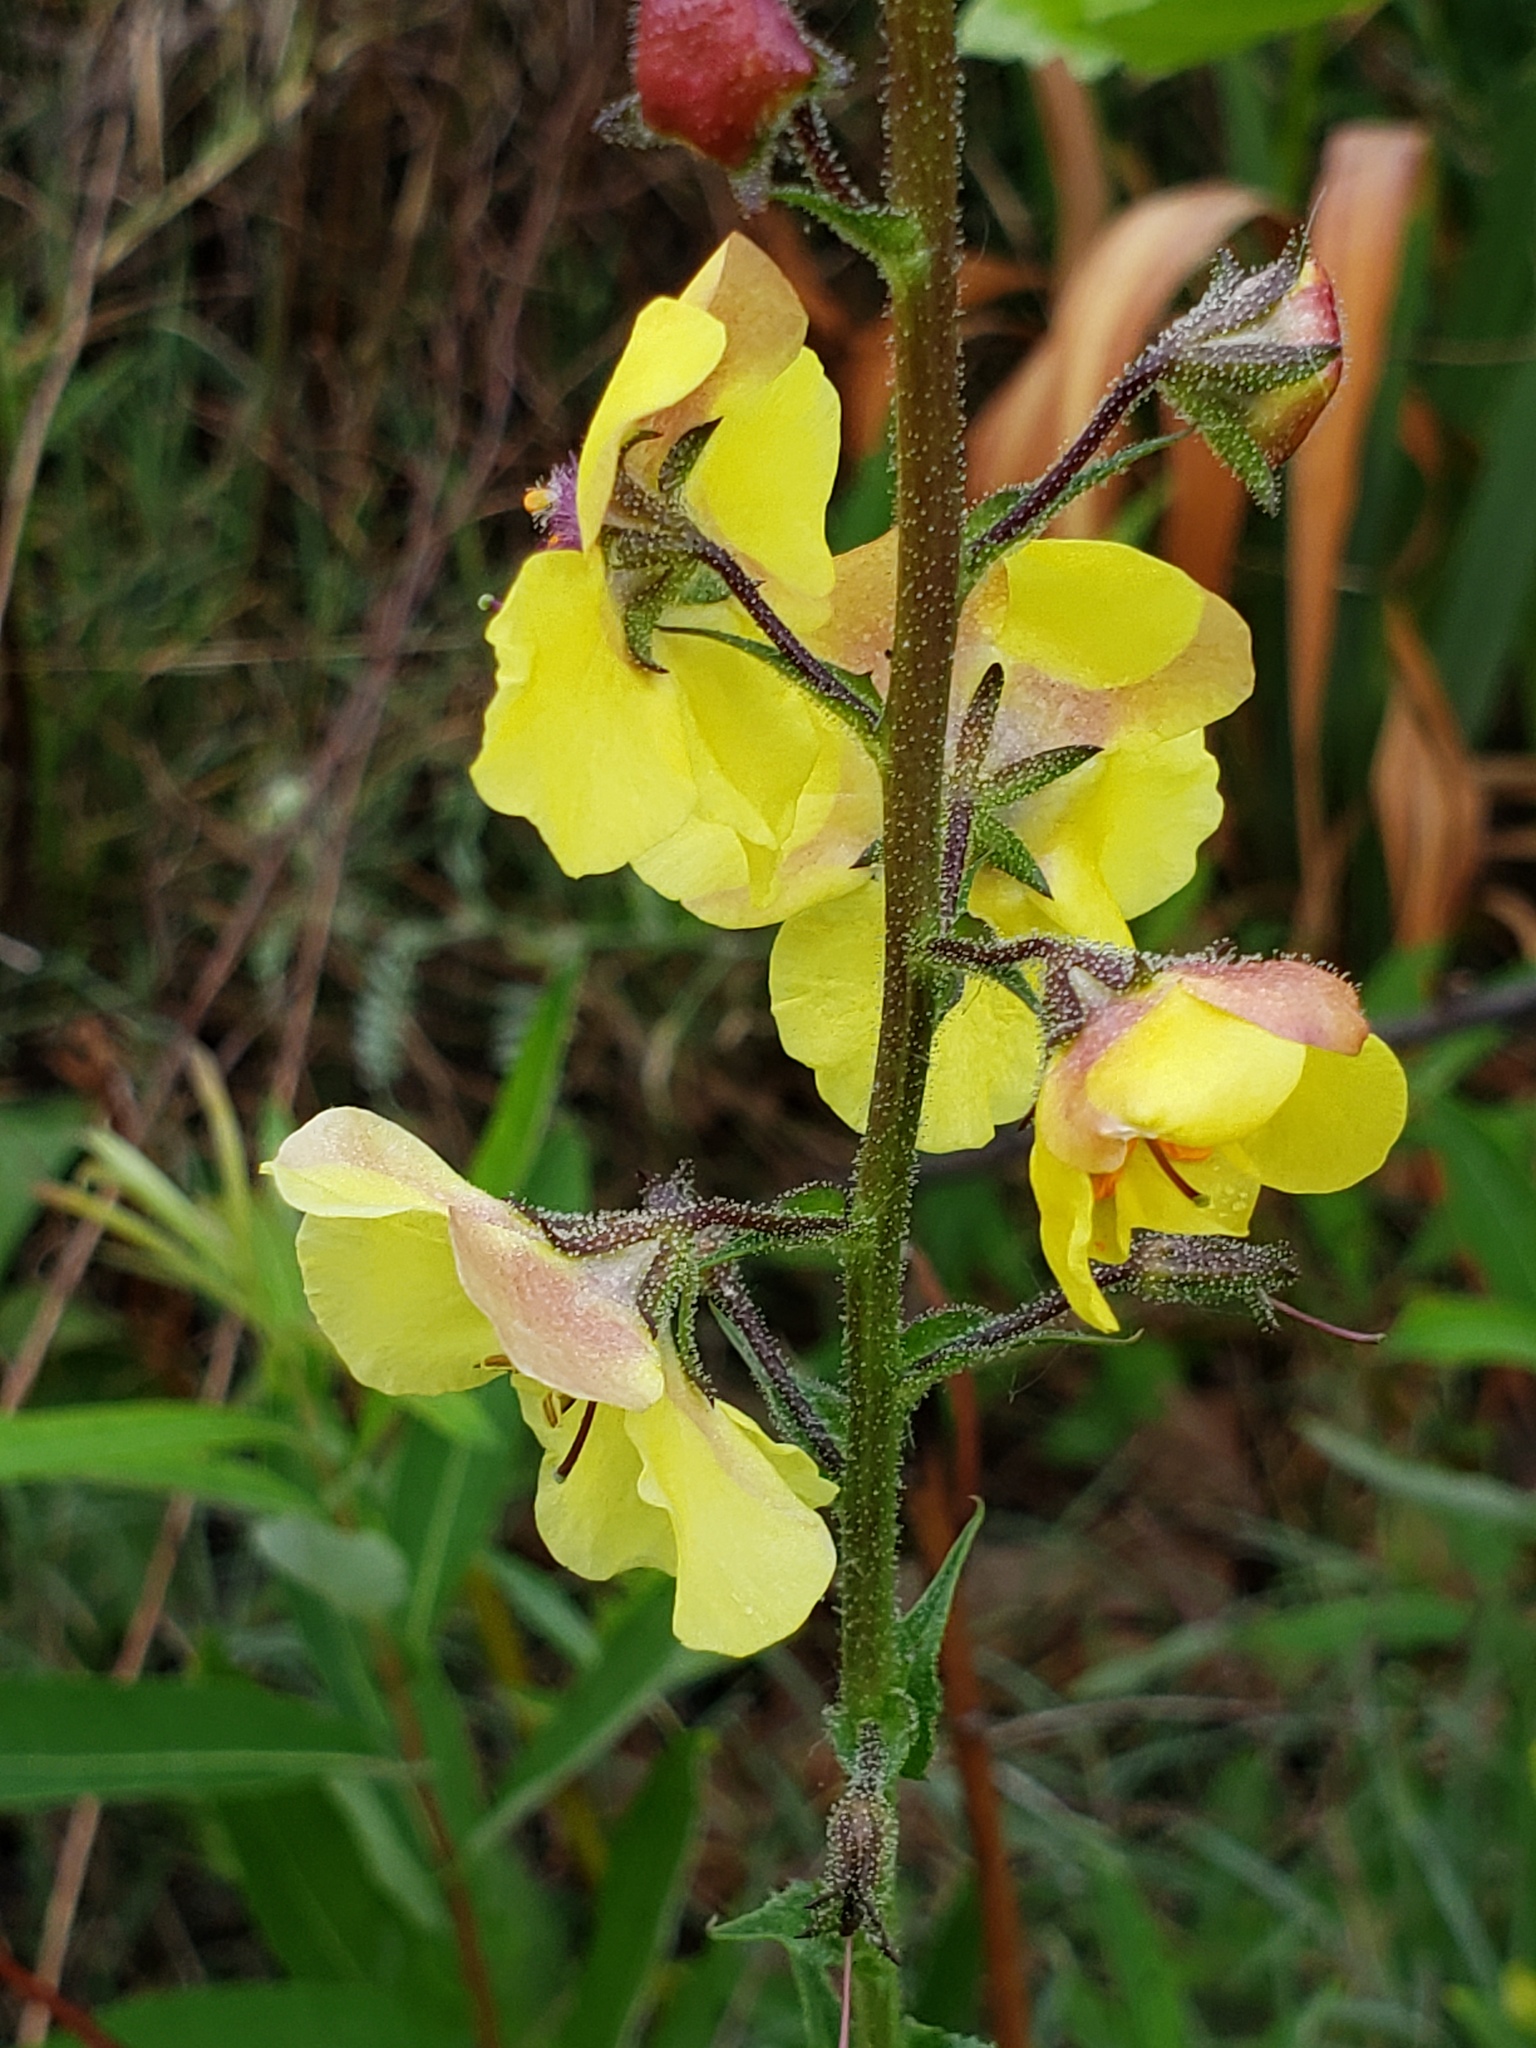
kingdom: Plantae
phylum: Tracheophyta
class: Magnoliopsida
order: Lamiales
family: Scrophulariaceae
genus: Verbascum
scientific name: Verbascum blattaria
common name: Moth mullein
